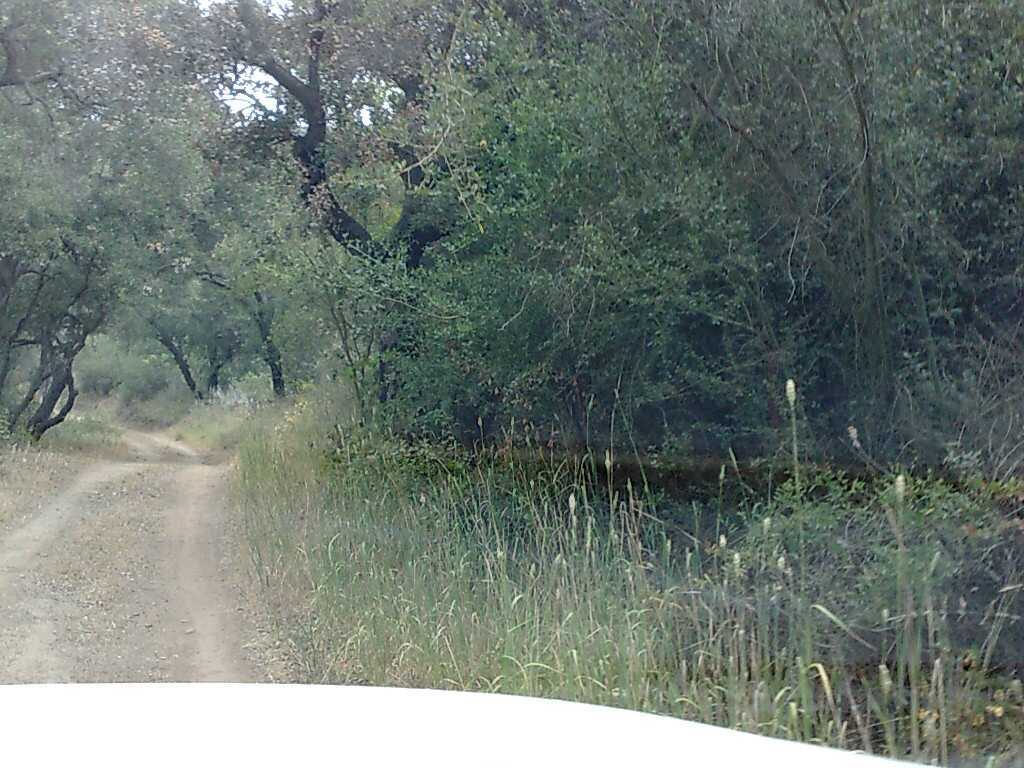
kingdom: Plantae
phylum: Tracheophyta
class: Magnoliopsida
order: Fagales
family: Fagaceae
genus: Quercus
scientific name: Quercus agrifolia
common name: California live oak
